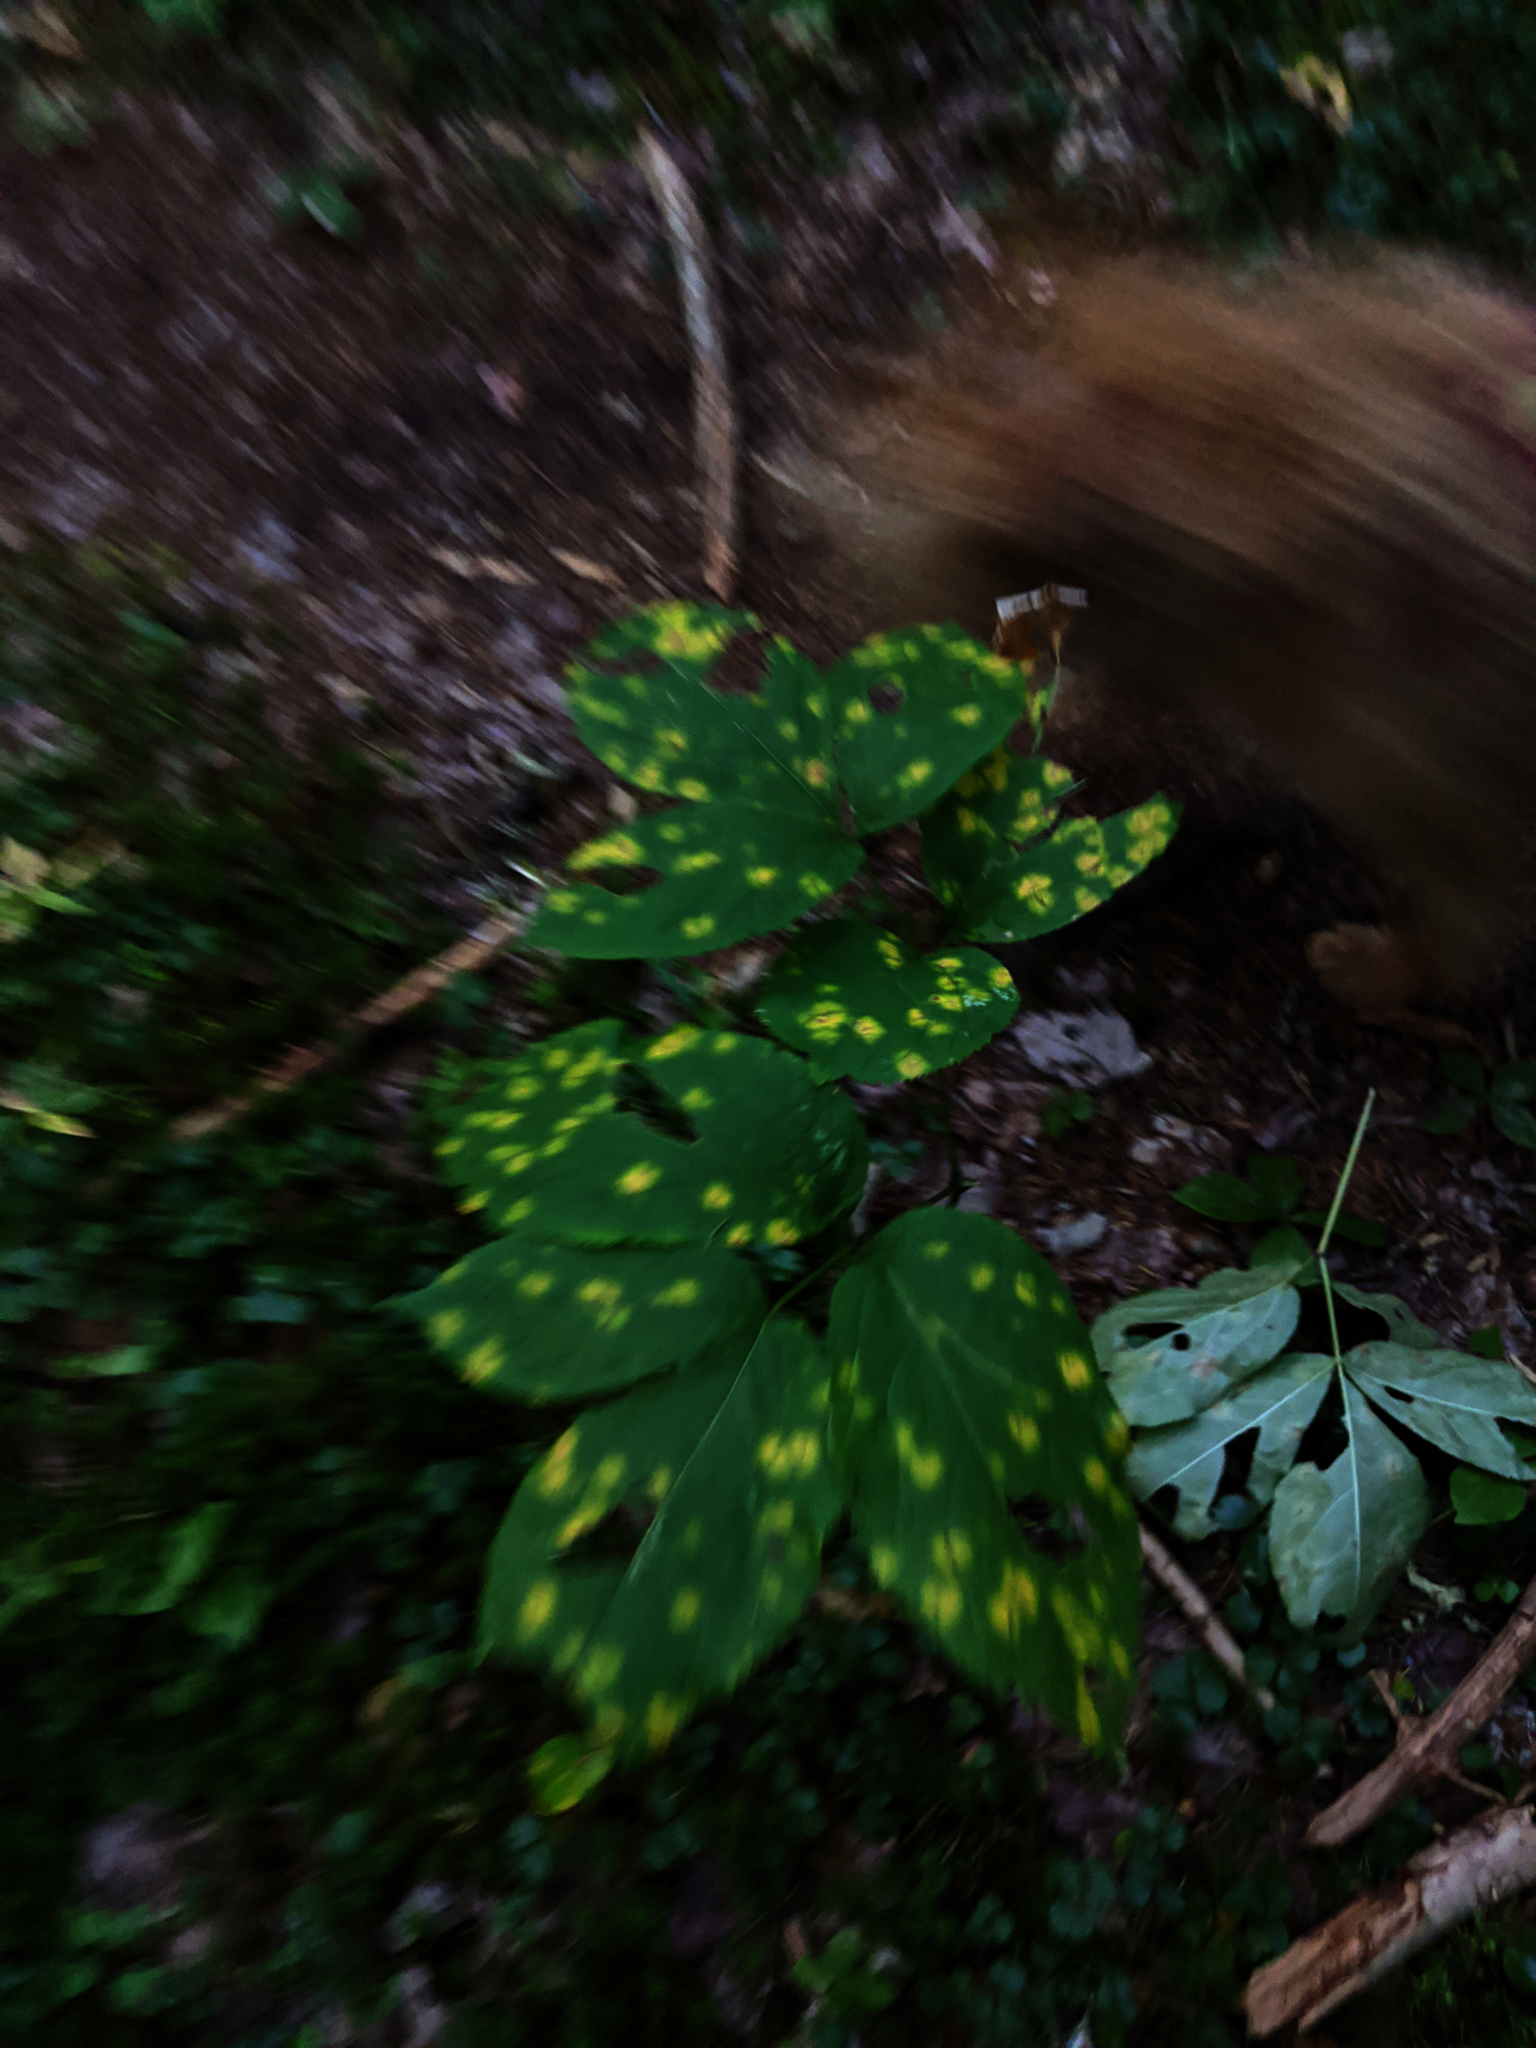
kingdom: Plantae
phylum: Tracheophyta
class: Magnoliopsida
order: Apiales
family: Araliaceae
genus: Aralia
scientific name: Aralia nudicaulis
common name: Wild sarsaparilla
